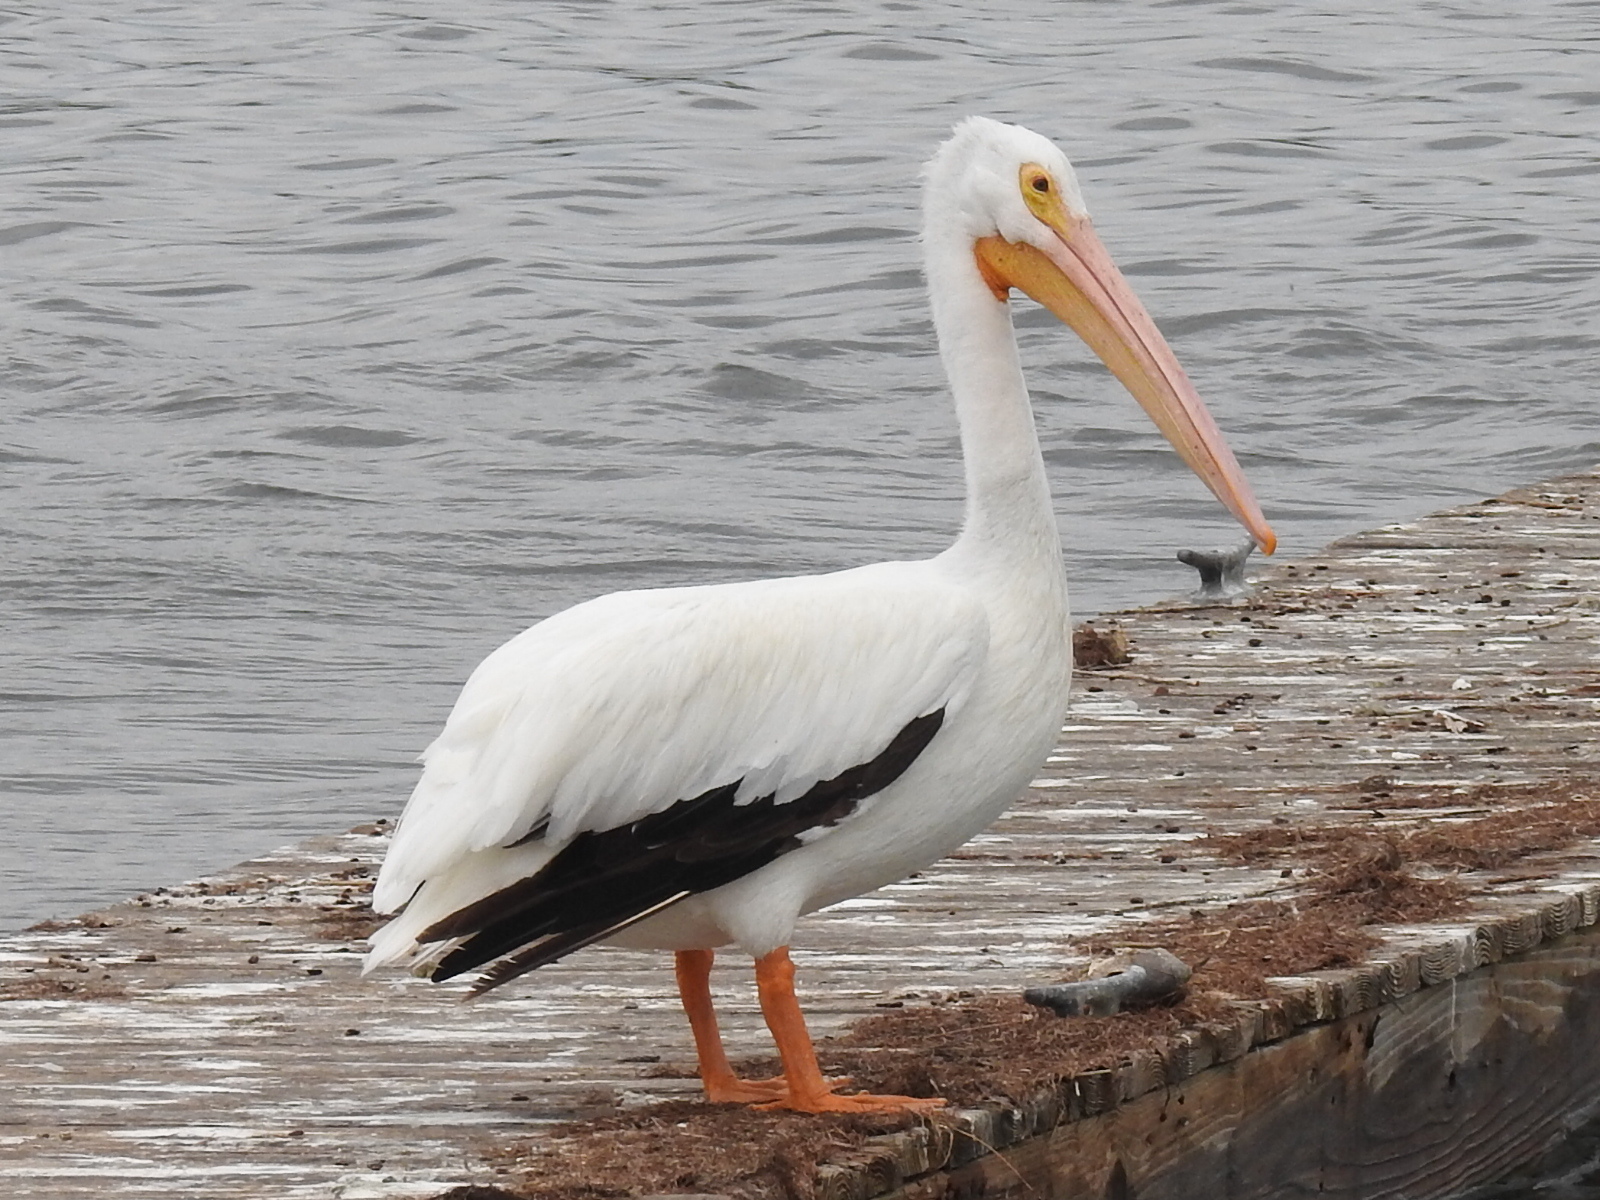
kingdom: Animalia
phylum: Chordata
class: Aves
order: Pelecaniformes
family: Pelecanidae
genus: Pelecanus
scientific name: Pelecanus erythrorhynchos
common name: American white pelican
